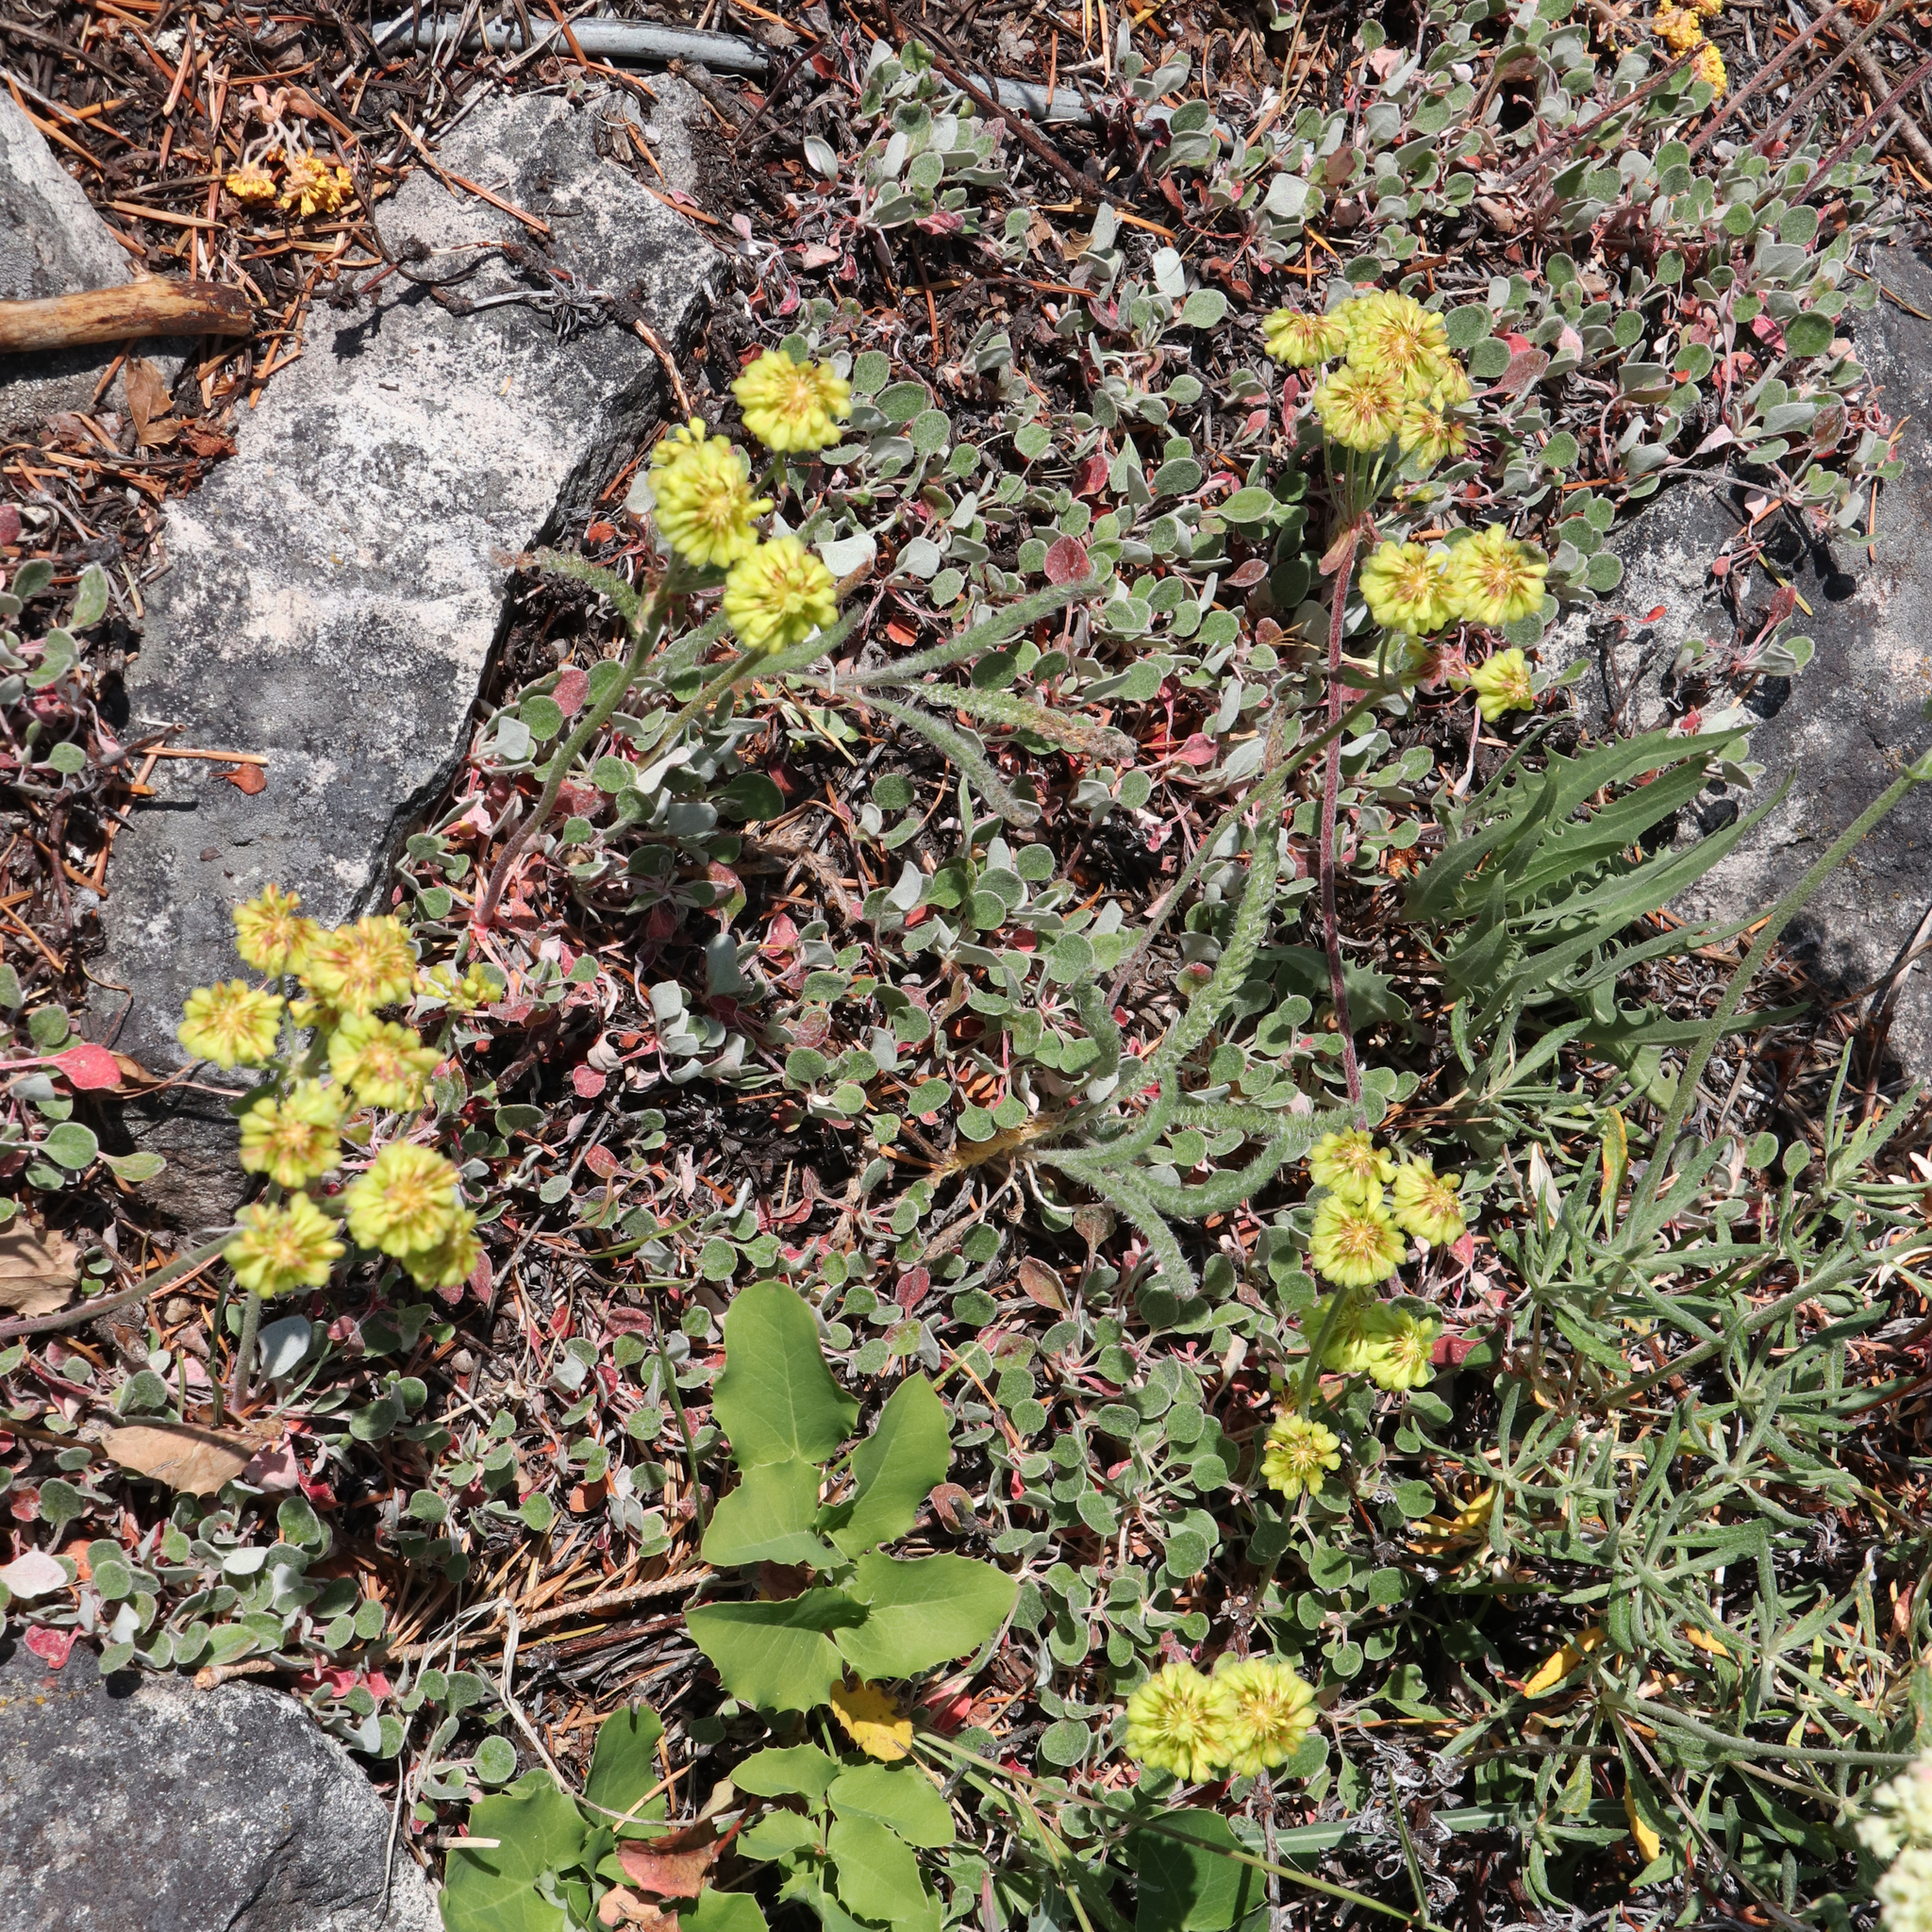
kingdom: Plantae
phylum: Tracheophyta
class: Magnoliopsida
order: Caryophyllales
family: Polygonaceae
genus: Eriogonum
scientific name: Eriogonum umbellatum
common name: Sulfur-buckwheat
